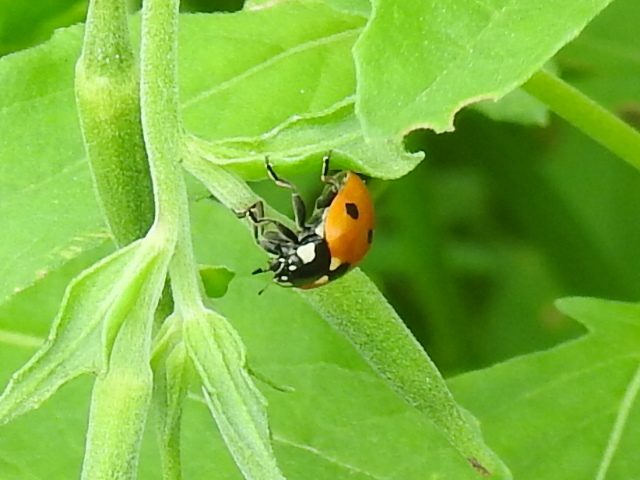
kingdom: Animalia
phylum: Arthropoda
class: Insecta
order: Coleoptera
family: Coccinellidae
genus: Coccinella
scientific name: Coccinella septempunctata
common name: Sevenspotted lady beetle
